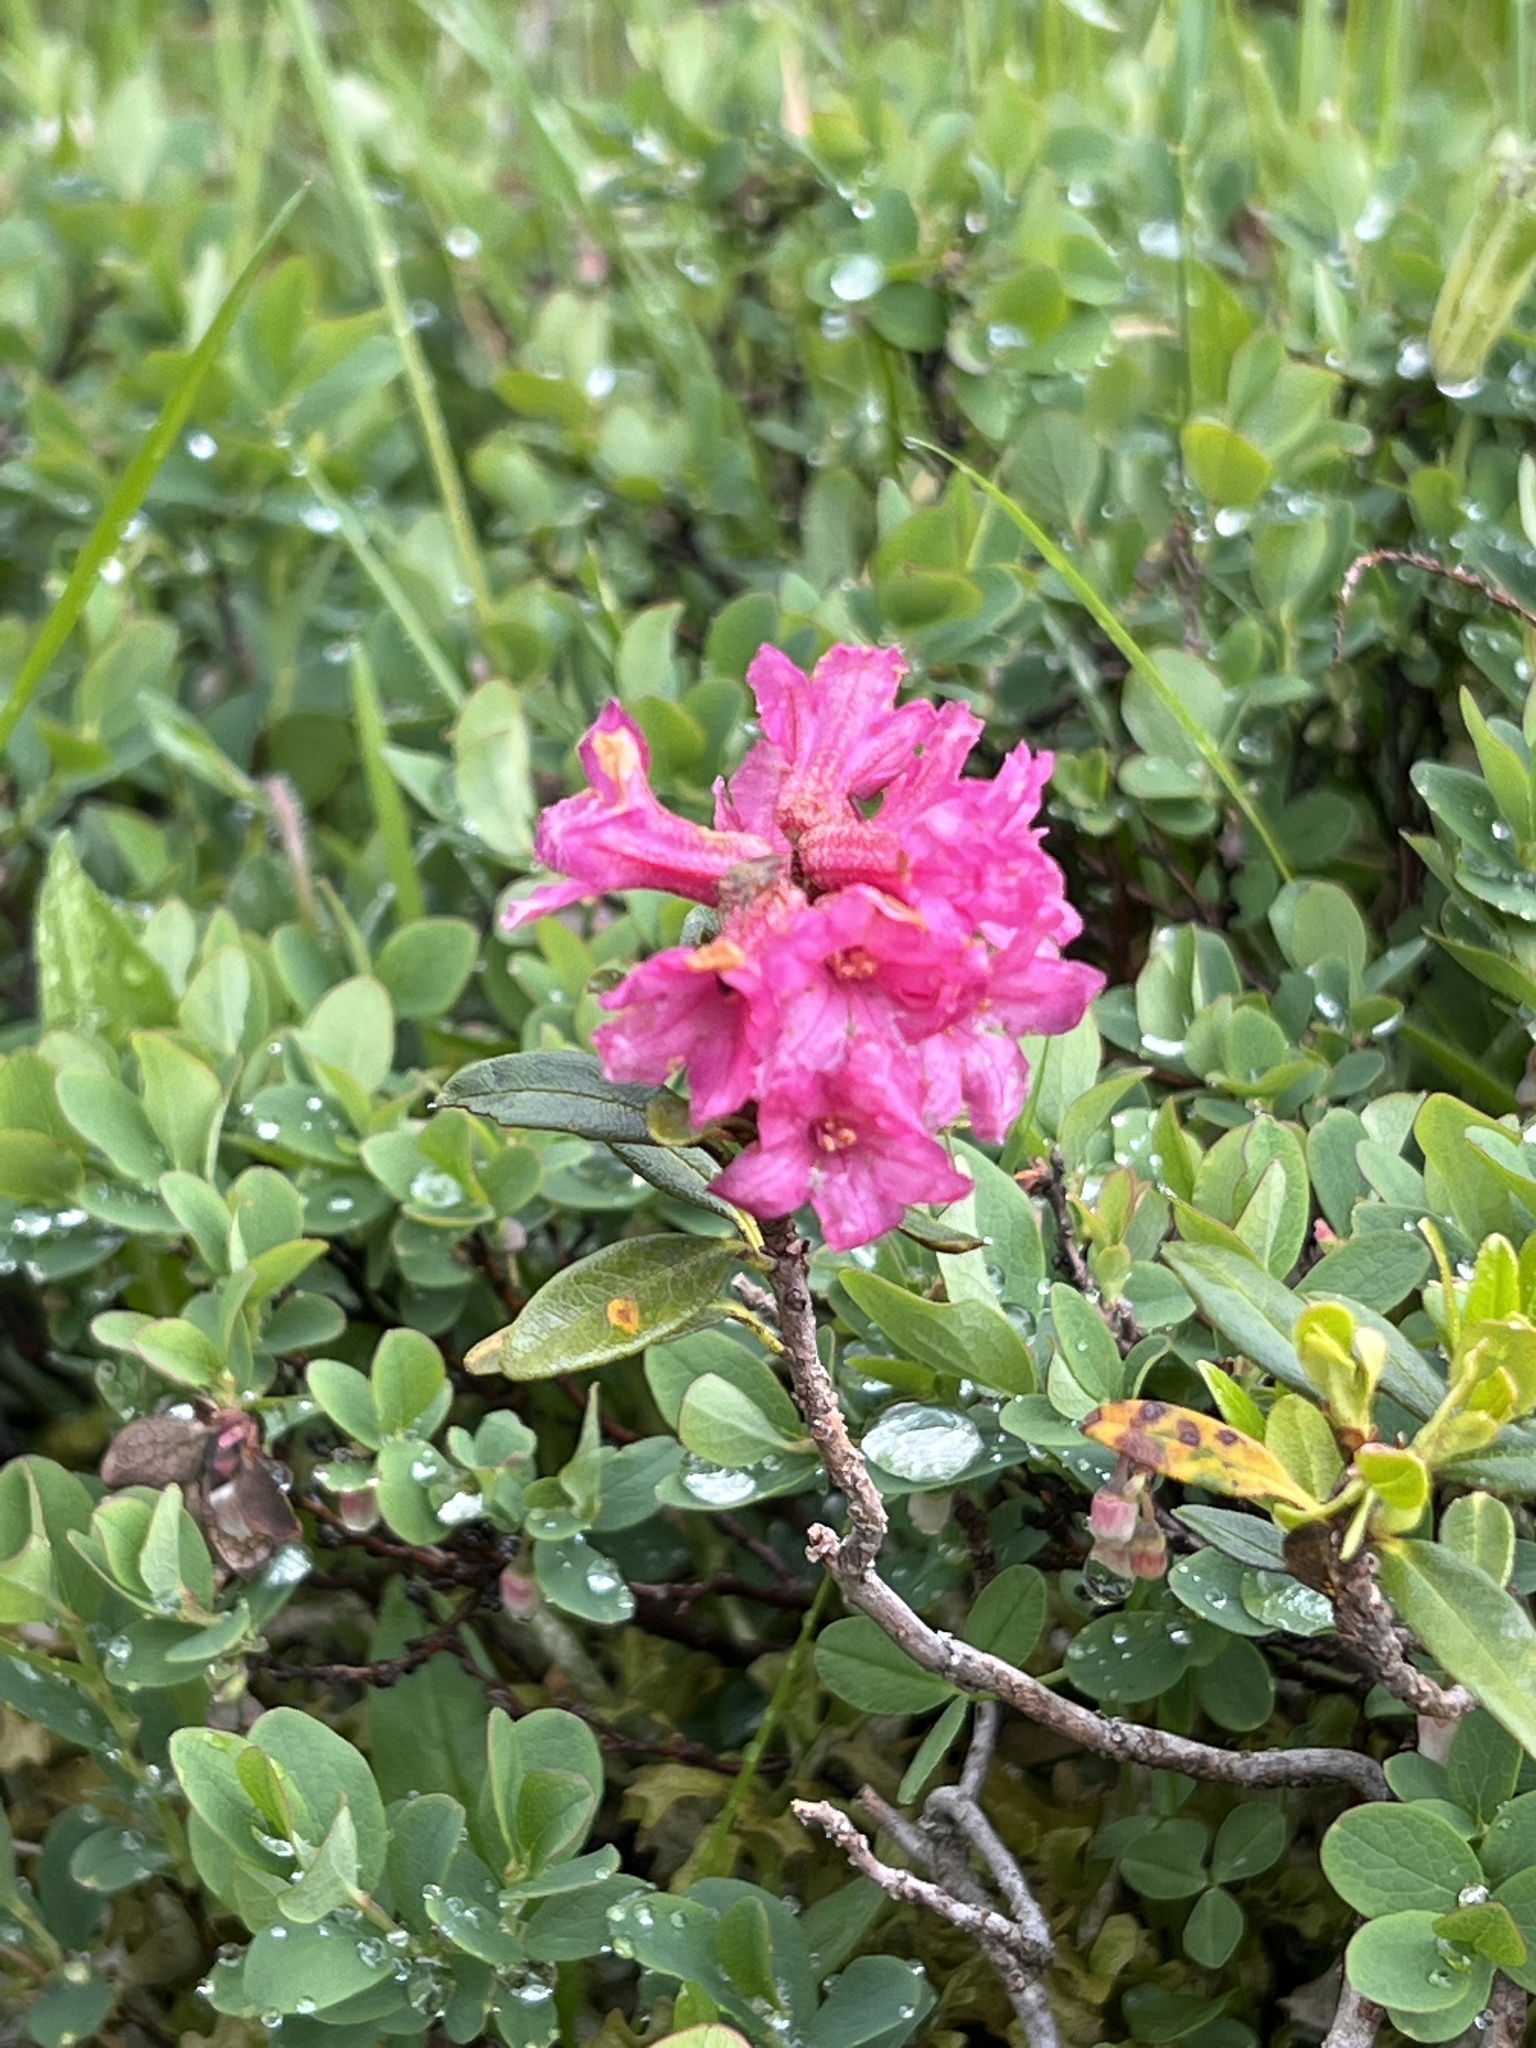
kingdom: Plantae
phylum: Tracheophyta
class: Magnoliopsida
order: Ericales
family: Ericaceae
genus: Rhododendron
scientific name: Rhododendron ferrugineum
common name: Alpenrose
